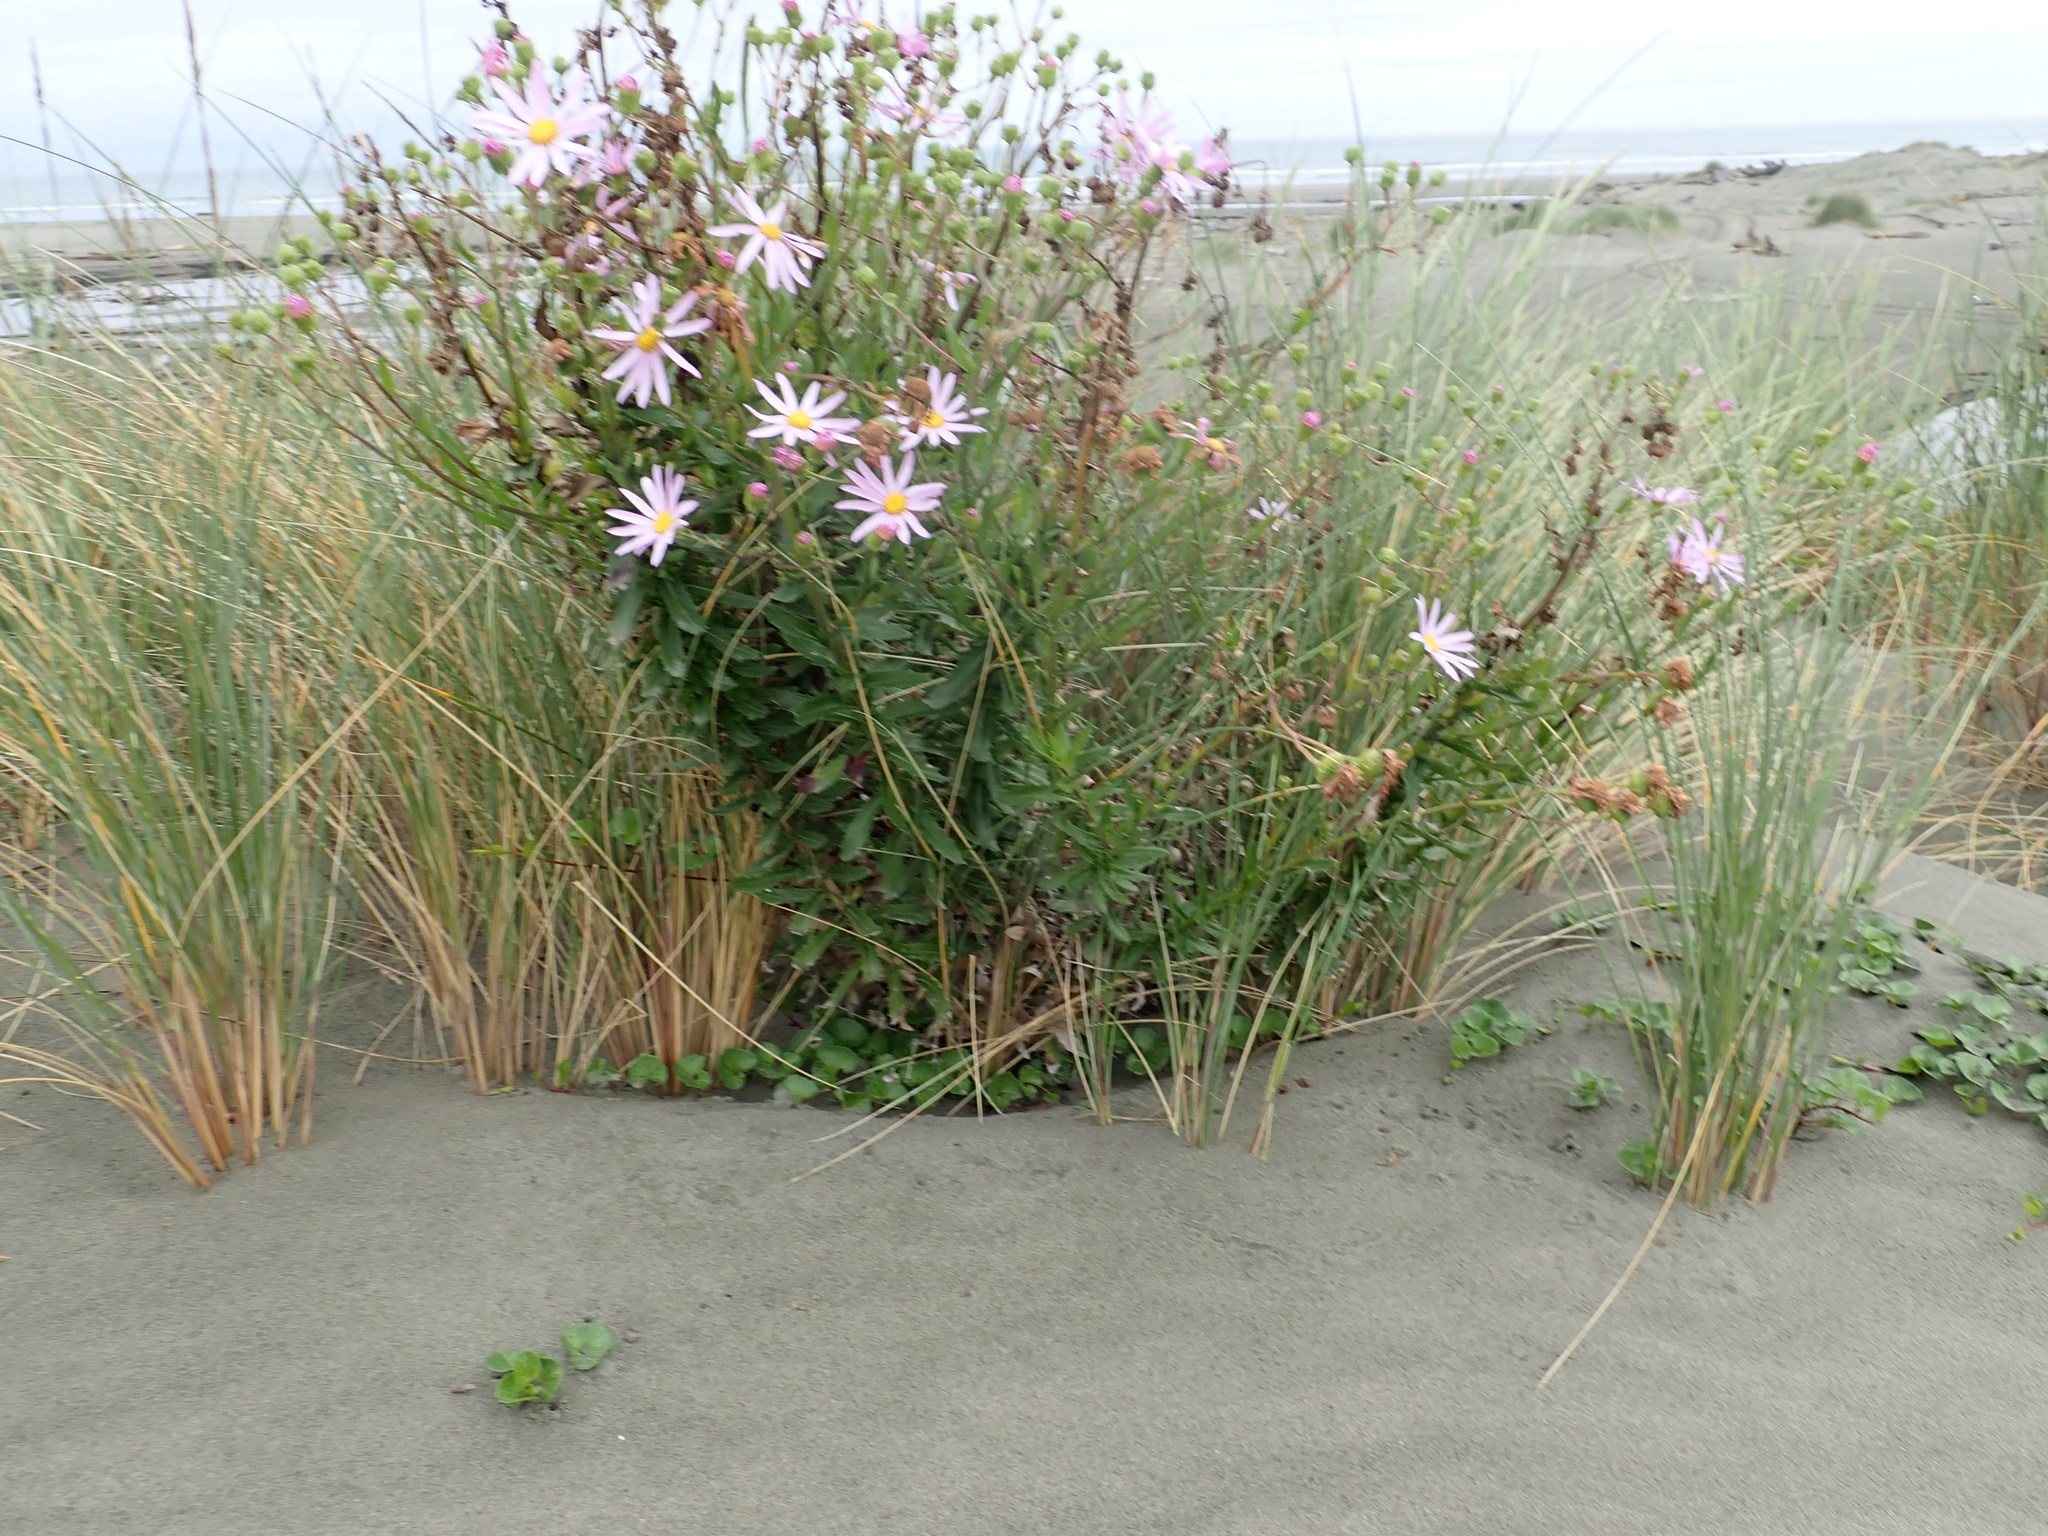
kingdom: Plantae
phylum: Tracheophyta
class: Magnoliopsida
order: Asterales
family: Asteraceae
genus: Senecio
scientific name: Senecio glastifolius
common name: Woad-leaved ragwort
